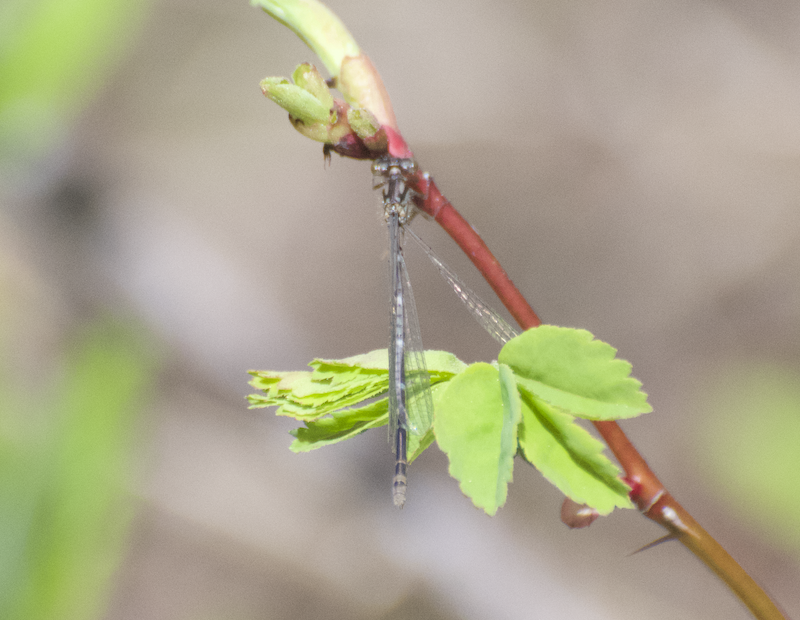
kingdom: Animalia
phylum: Arthropoda
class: Insecta
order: Odonata
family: Coenagrionidae
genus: Coenagrion
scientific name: Coenagrion interrogatum
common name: Subarctic bluet
